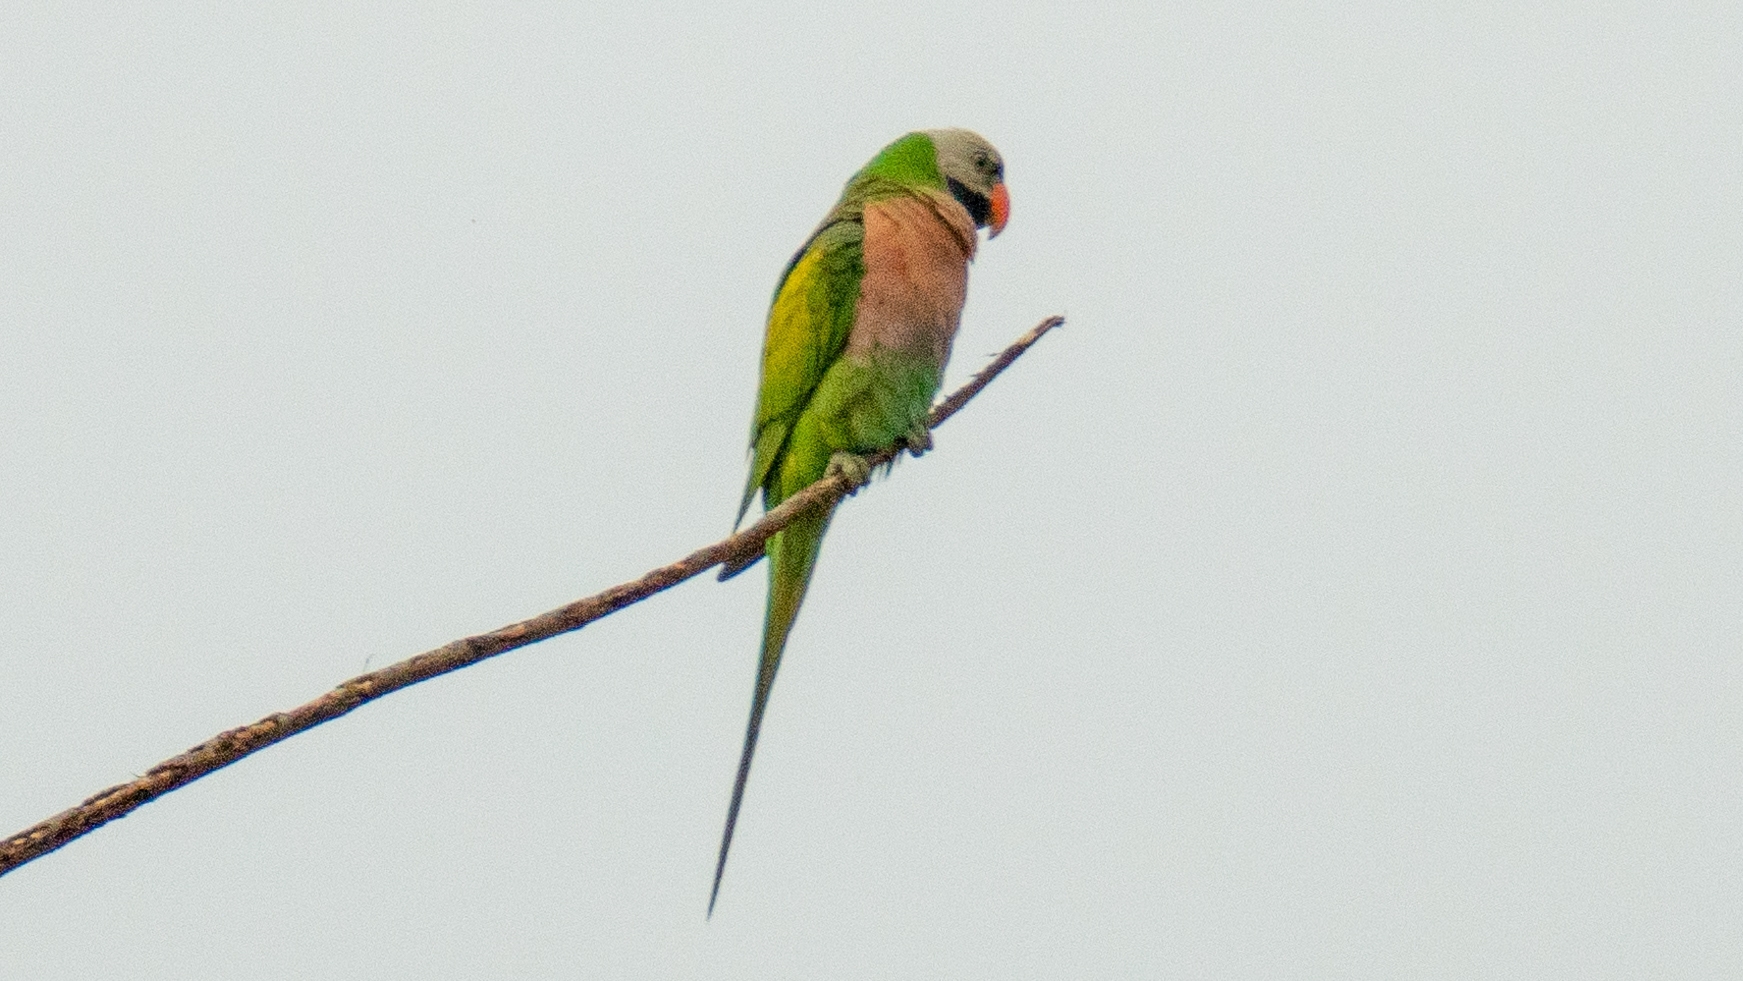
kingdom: Animalia
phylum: Chordata
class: Aves
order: Psittaciformes
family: Psittacidae
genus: Psittacula
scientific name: Psittacula alexandri
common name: Red-breasted parakeet
